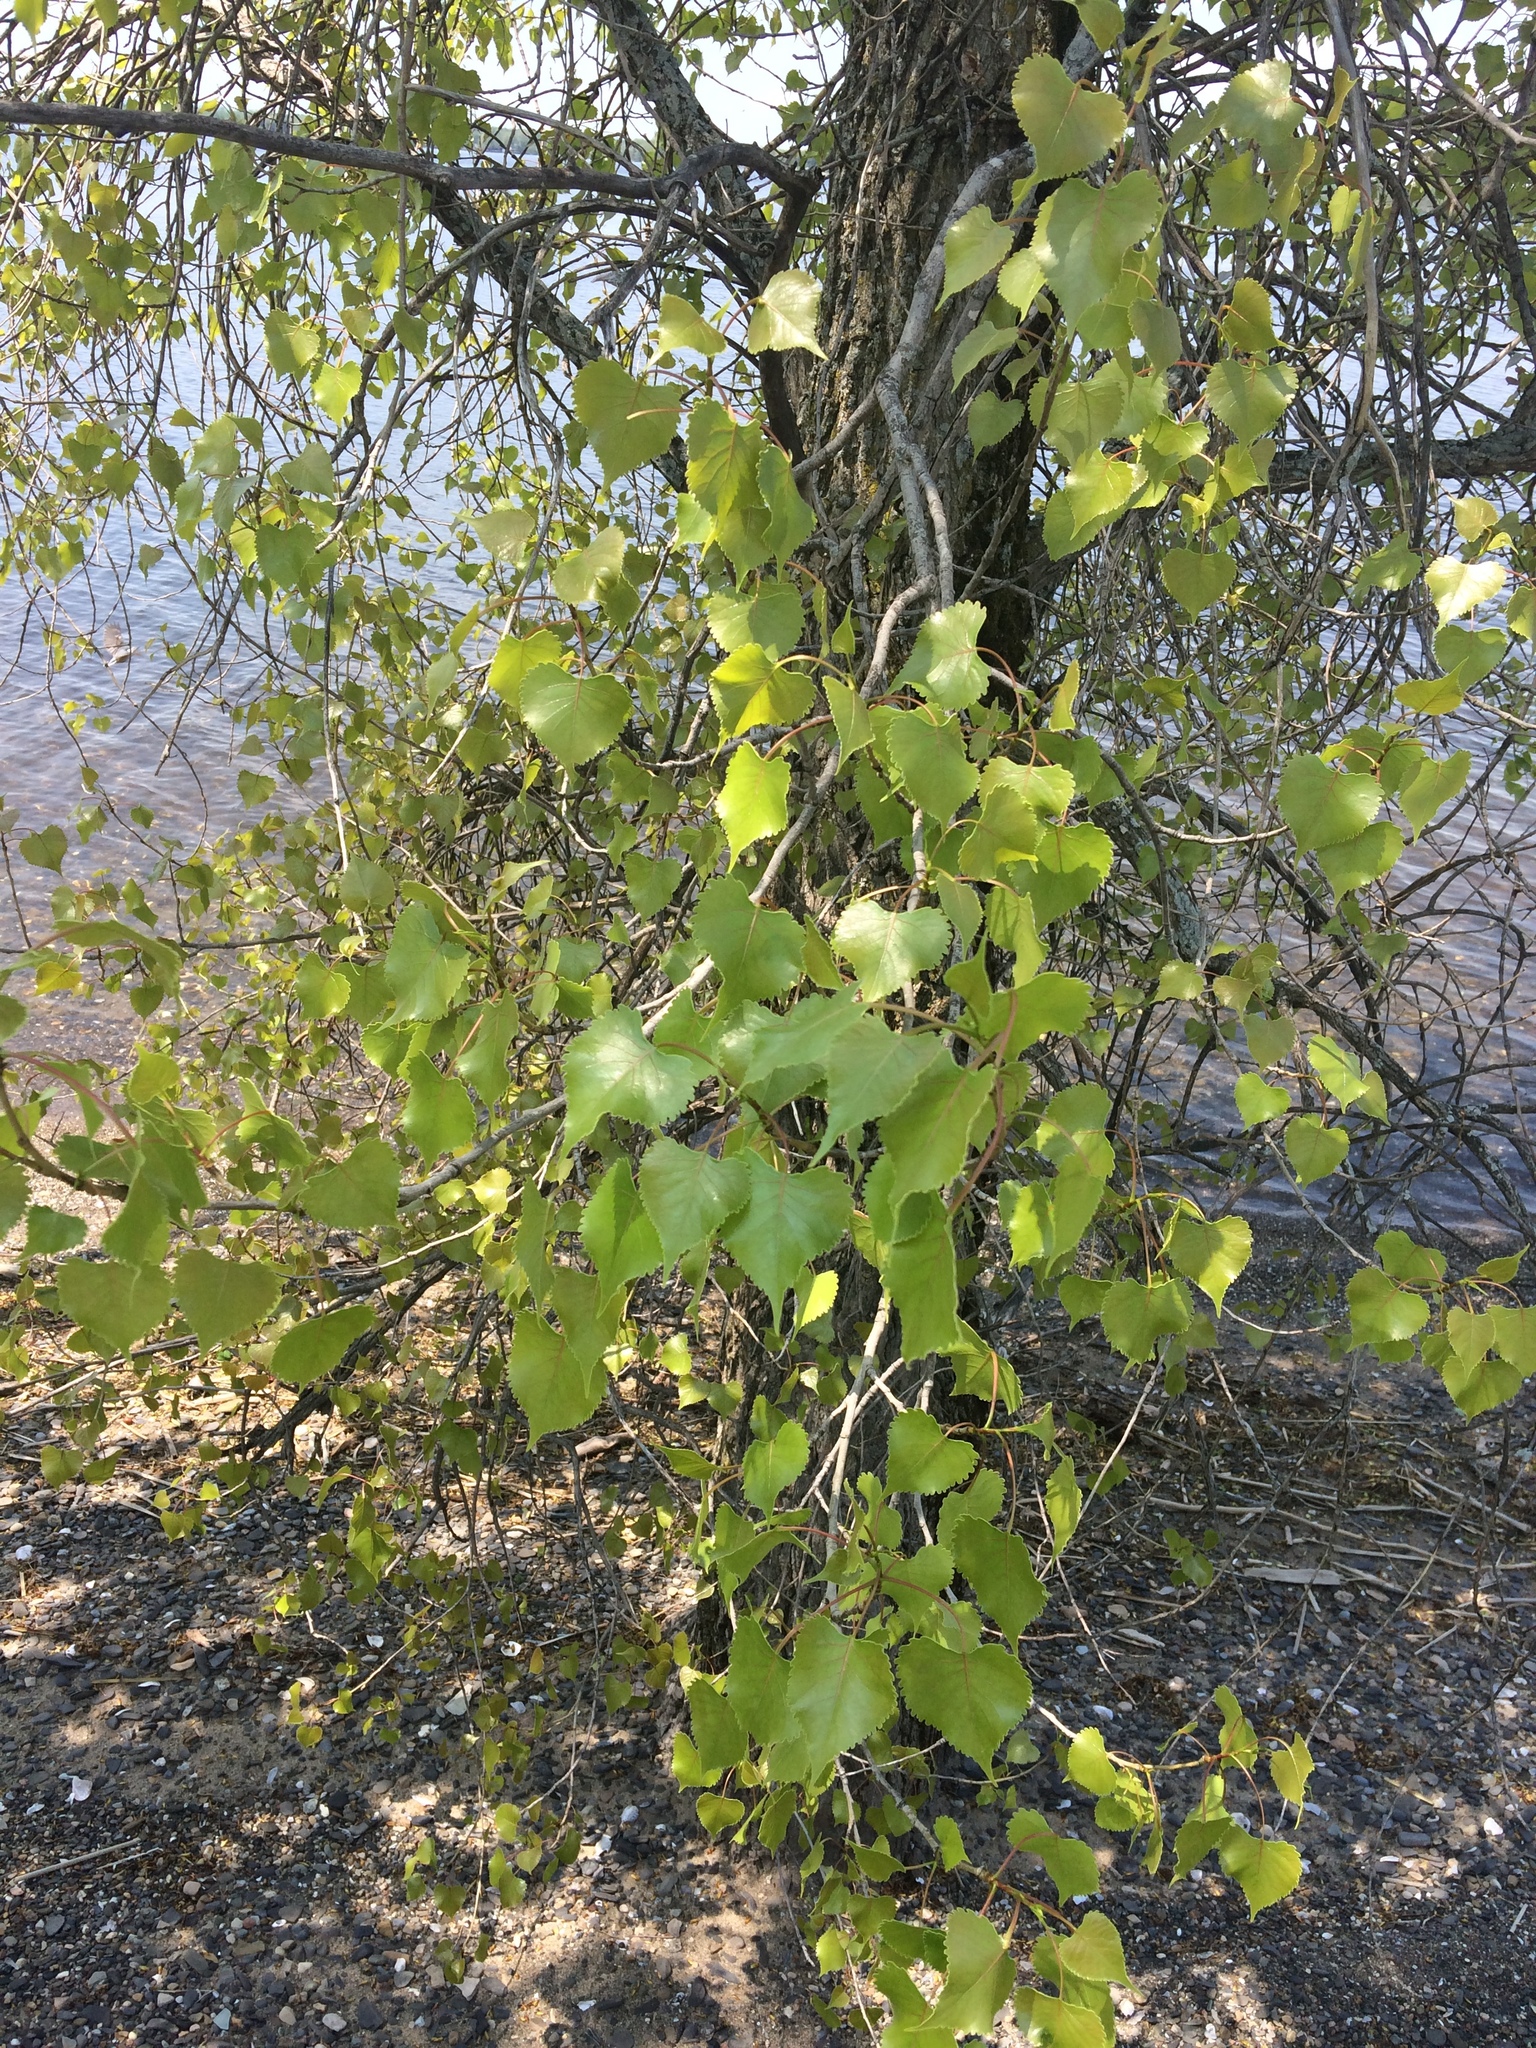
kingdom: Plantae
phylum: Tracheophyta
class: Magnoliopsida
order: Malpighiales
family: Salicaceae
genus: Populus
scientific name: Populus deltoides
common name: Eastern cottonwood
